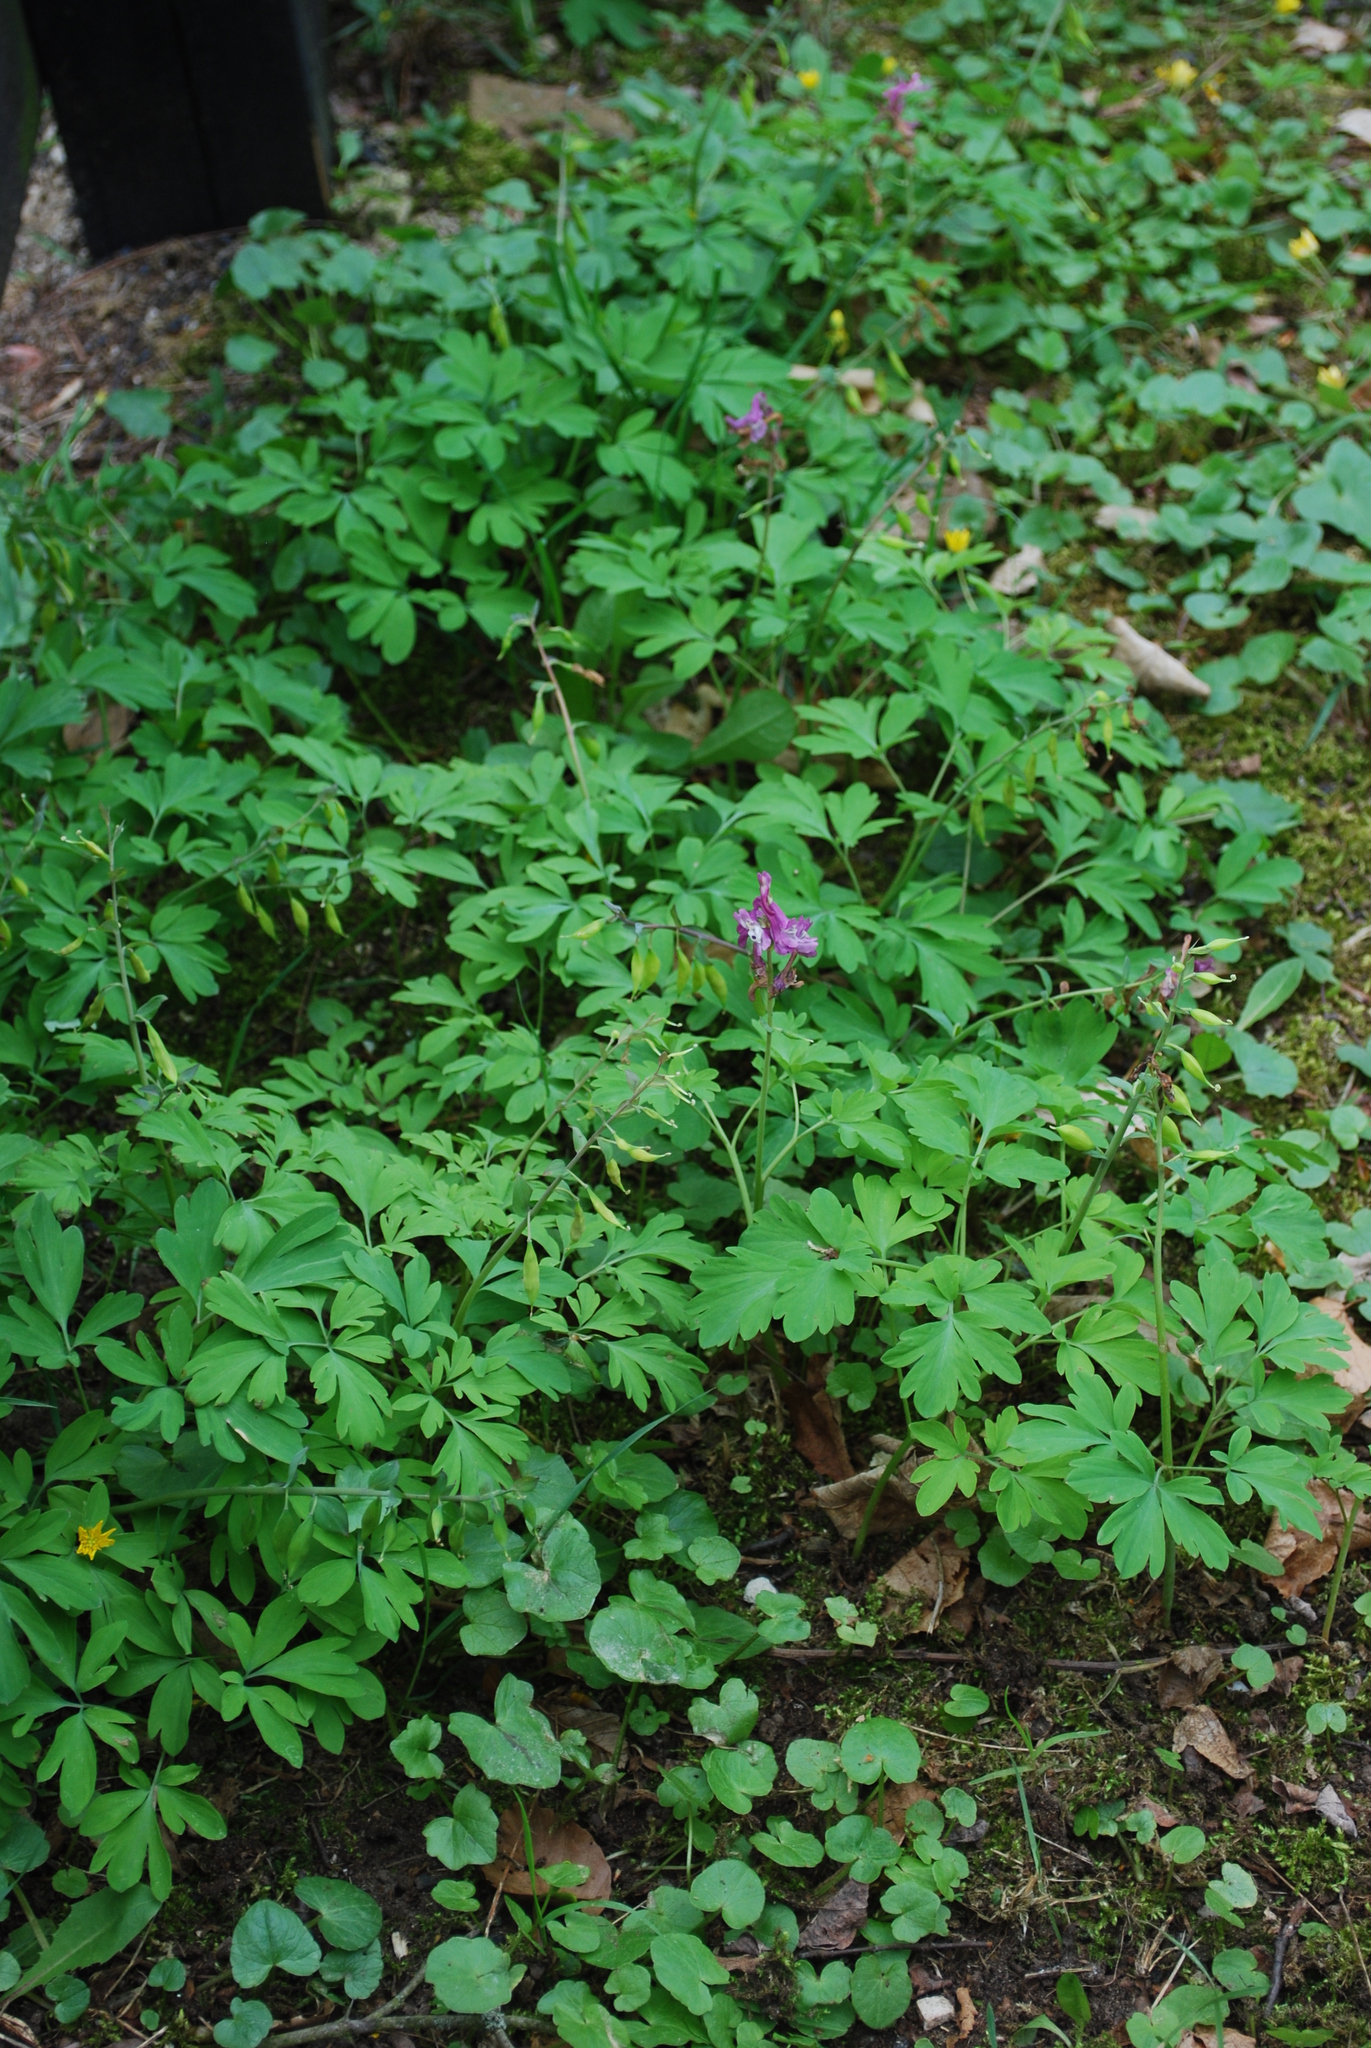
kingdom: Plantae
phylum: Tracheophyta
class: Magnoliopsida
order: Ranunculales
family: Papaveraceae
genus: Corydalis
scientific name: Corydalis cava
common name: Hollowroot
